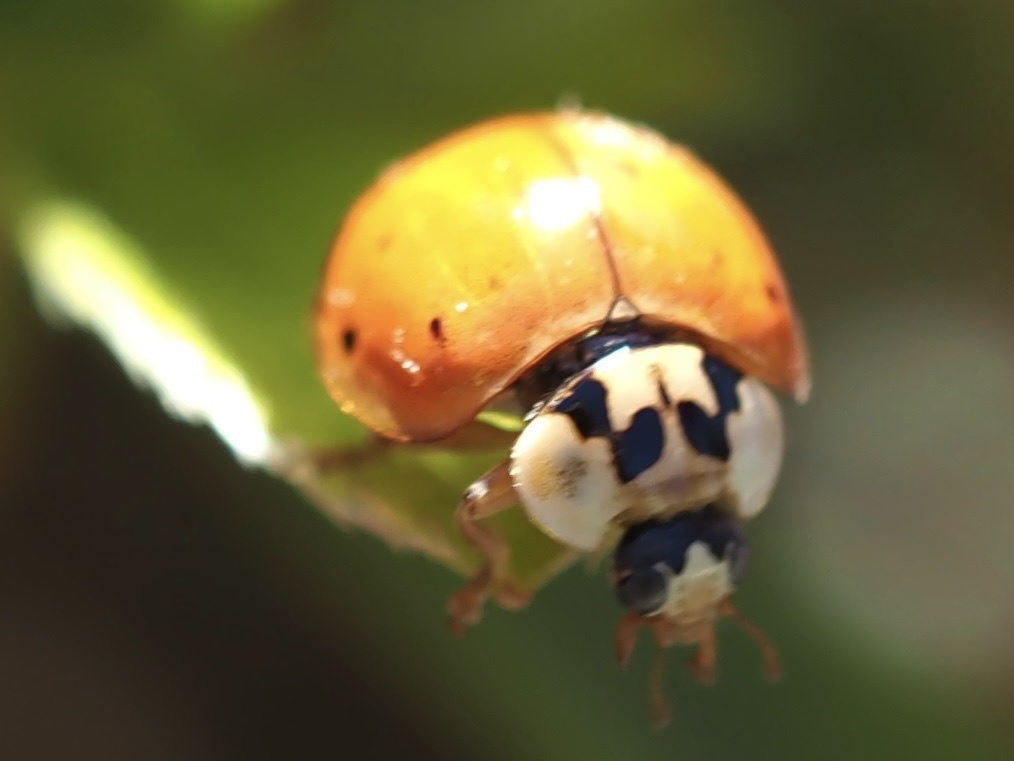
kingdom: Animalia
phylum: Arthropoda
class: Insecta
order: Coleoptera
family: Coccinellidae
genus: Harmonia
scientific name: Harmonia axyridis
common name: Harlequin ladybird
